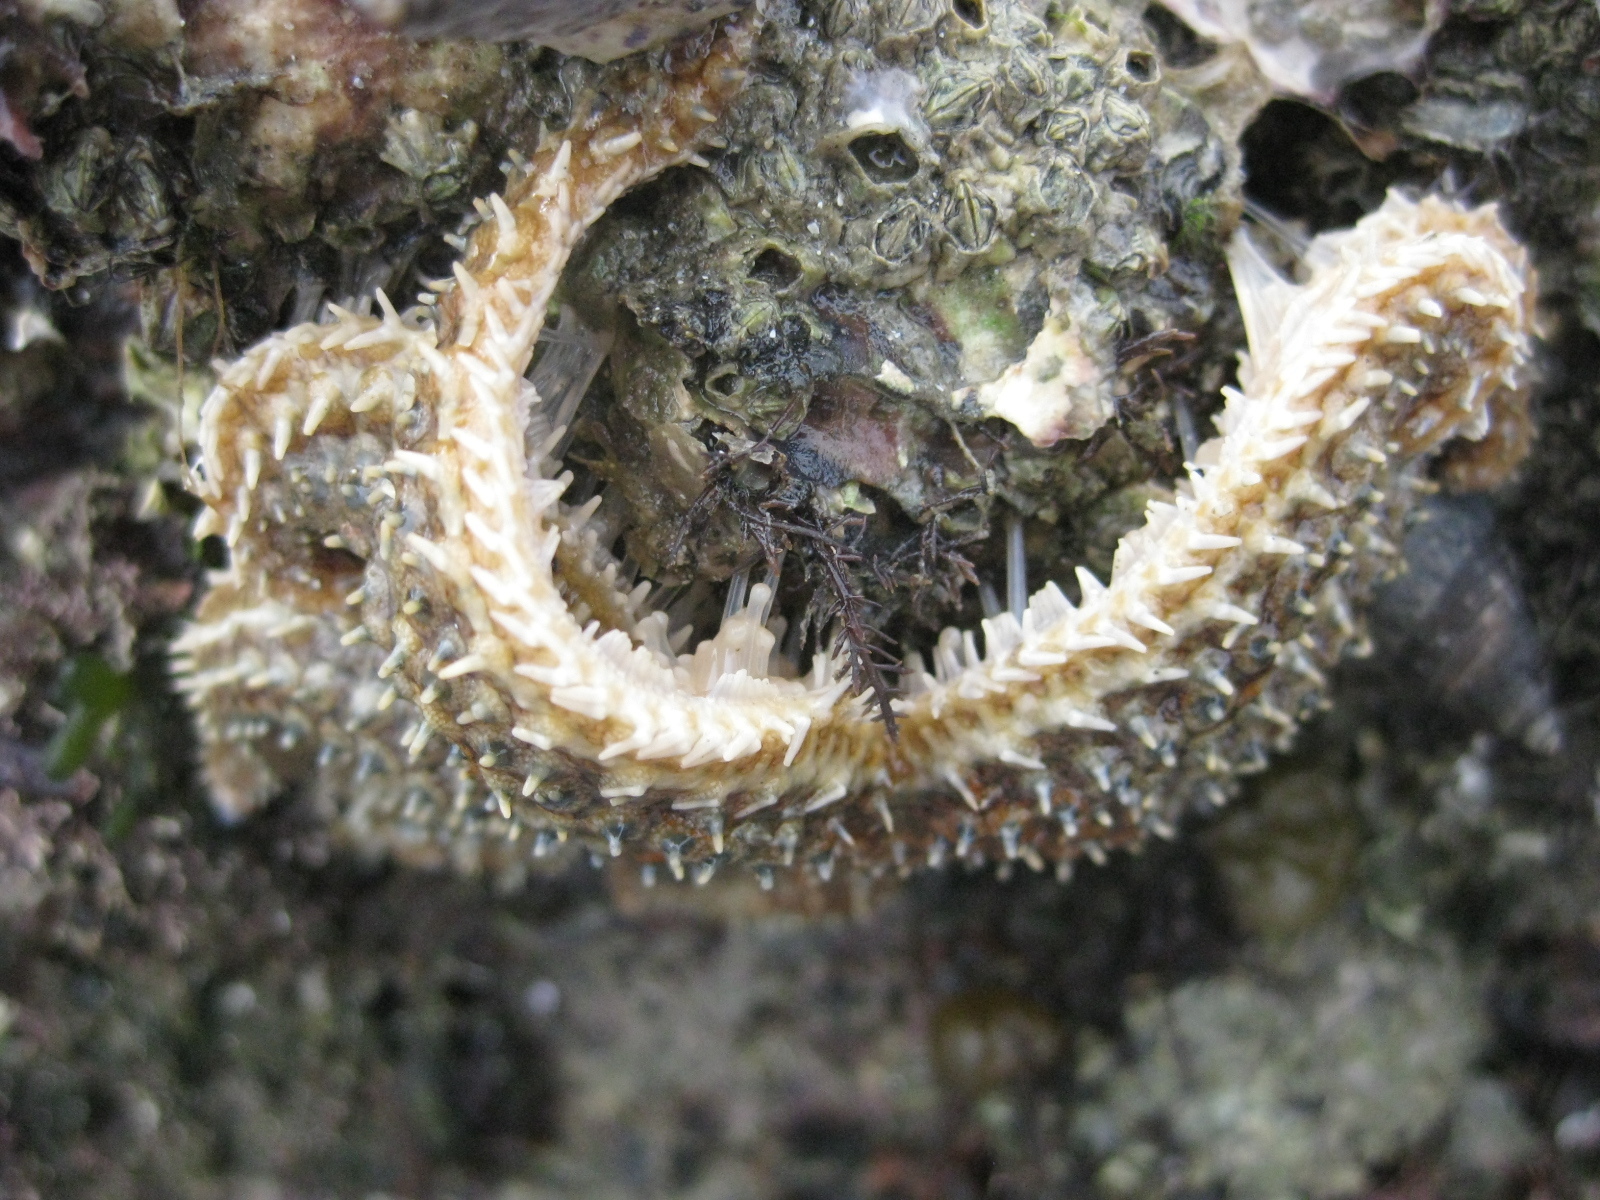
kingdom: Animalia
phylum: Echinodermata
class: Asteroidea
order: Forcipulatida
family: Asteriidae
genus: Coscinasterias
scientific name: Coscinasterias muricata
